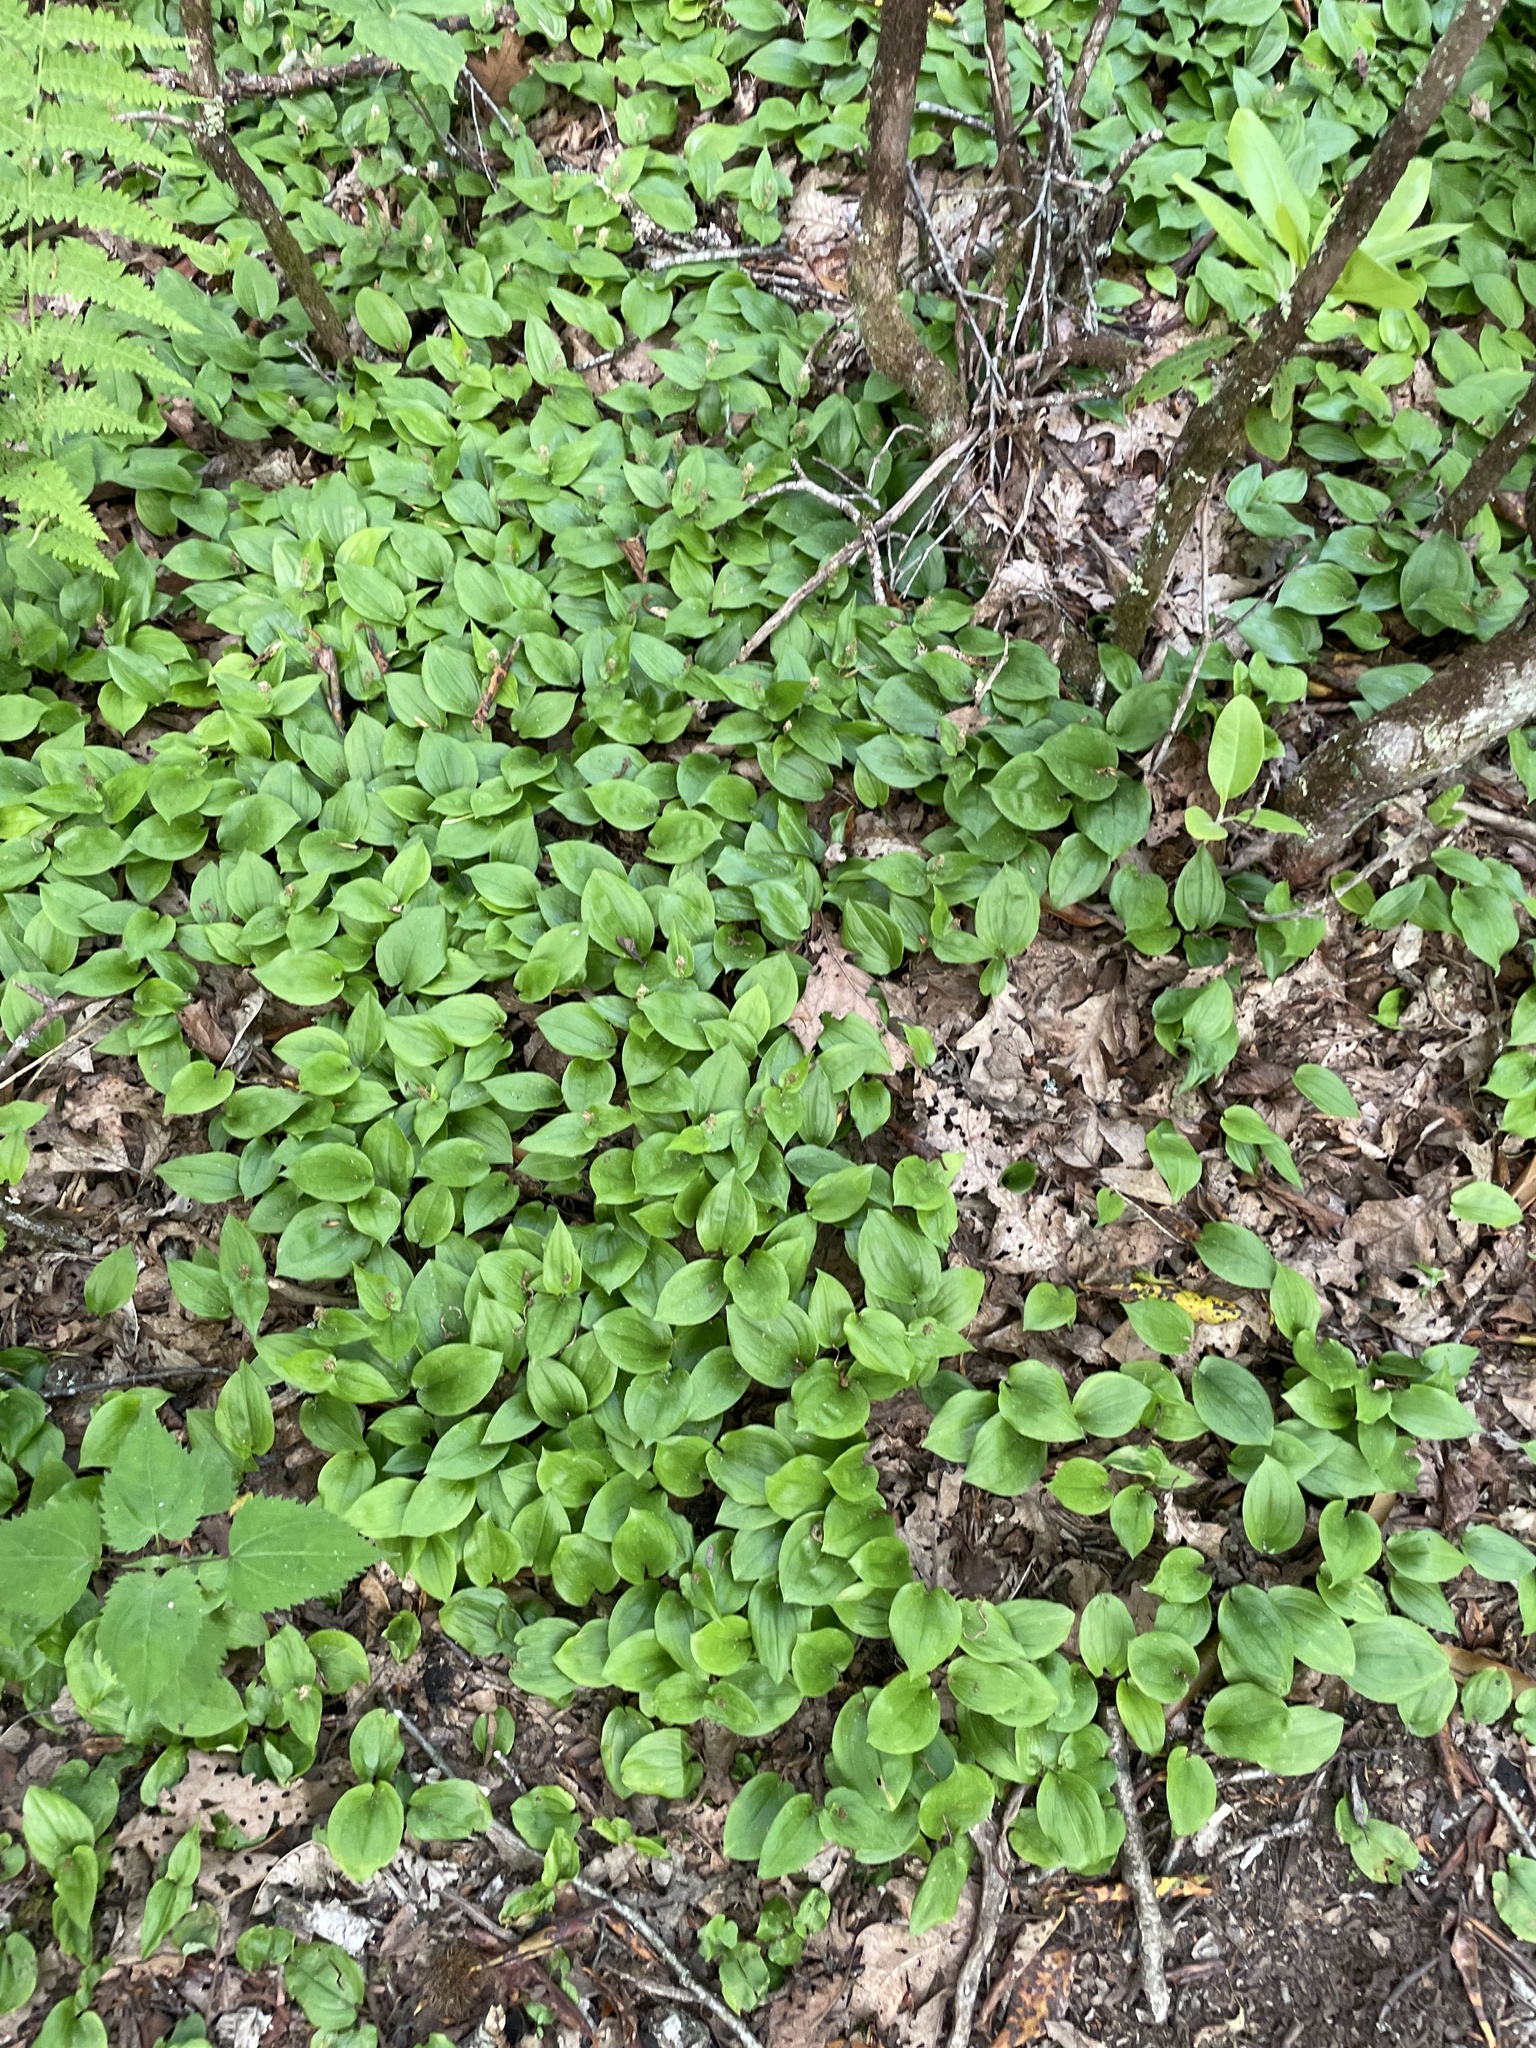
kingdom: Plantae
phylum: Tracheophyta
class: Liliopsida
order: Asparagales
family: Asparagaceae
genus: Maianthemum
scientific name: Maianthemum canadense
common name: False lily-of-the-valley
